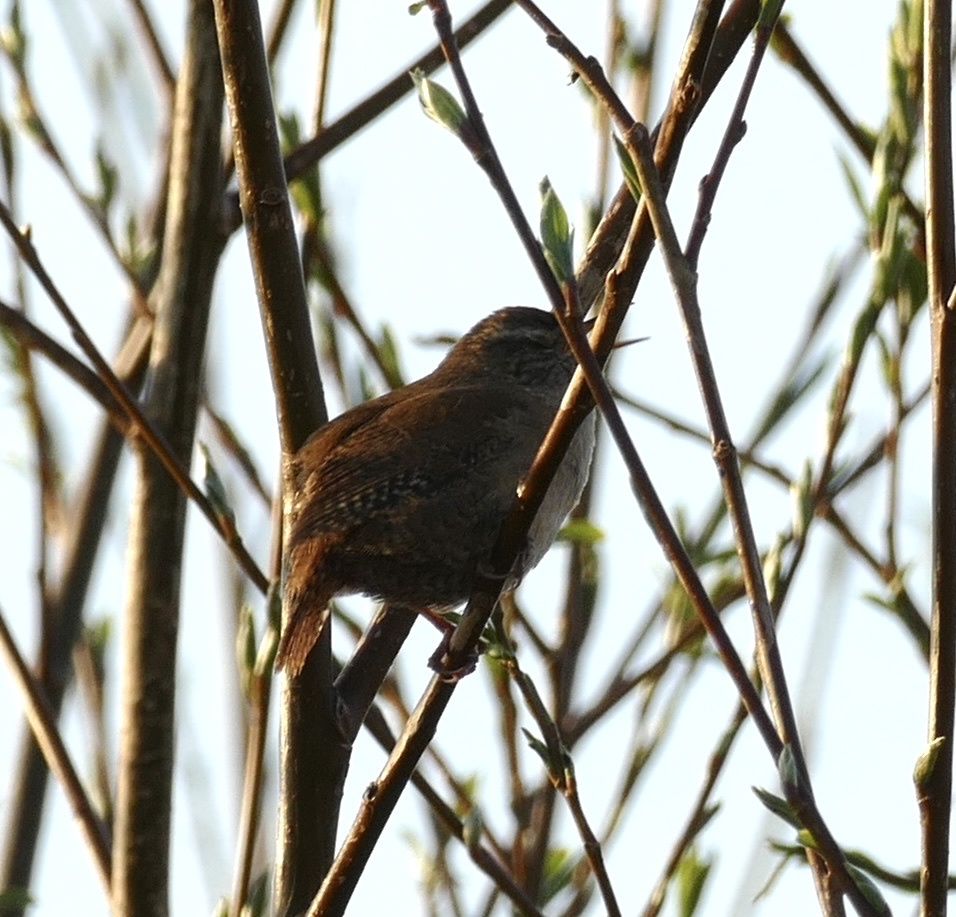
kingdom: Animalia
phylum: Chordata
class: Aves
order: Passeriformes
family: Troglodytidae
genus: Troglodytes
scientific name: Troglodytes troglodytes
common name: Eurasian wren
